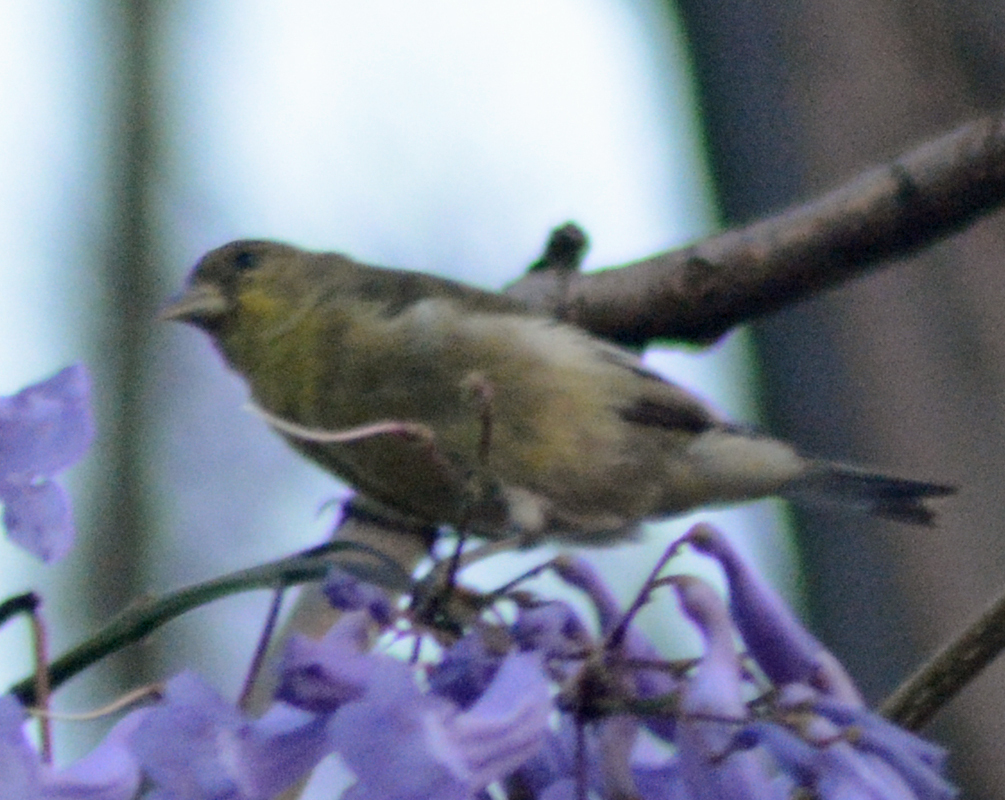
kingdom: Animalia
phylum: Chordata
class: Aves
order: Passeriformes
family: Fringillidae
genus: Spinus
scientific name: Spinus psaltria
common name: Lesser goldfinch
